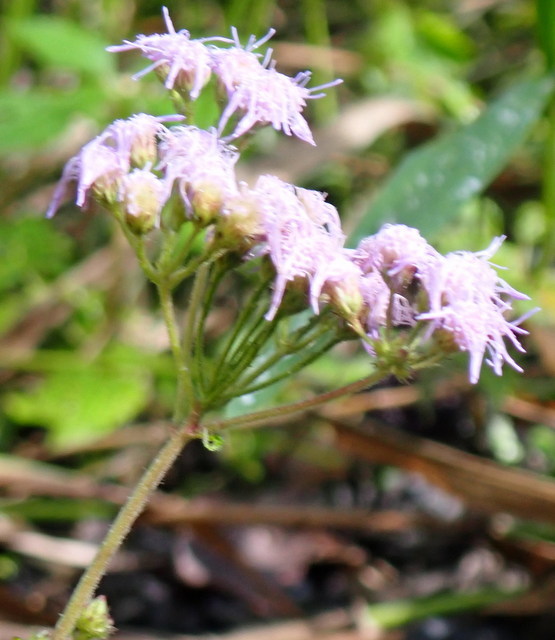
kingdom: Plantae
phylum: Tracheophyta
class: Magnoliopsida
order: Asterales
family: Asteraceae
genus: Conoclinium
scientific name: Conoclinium coelestinum
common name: Blue mistflower
